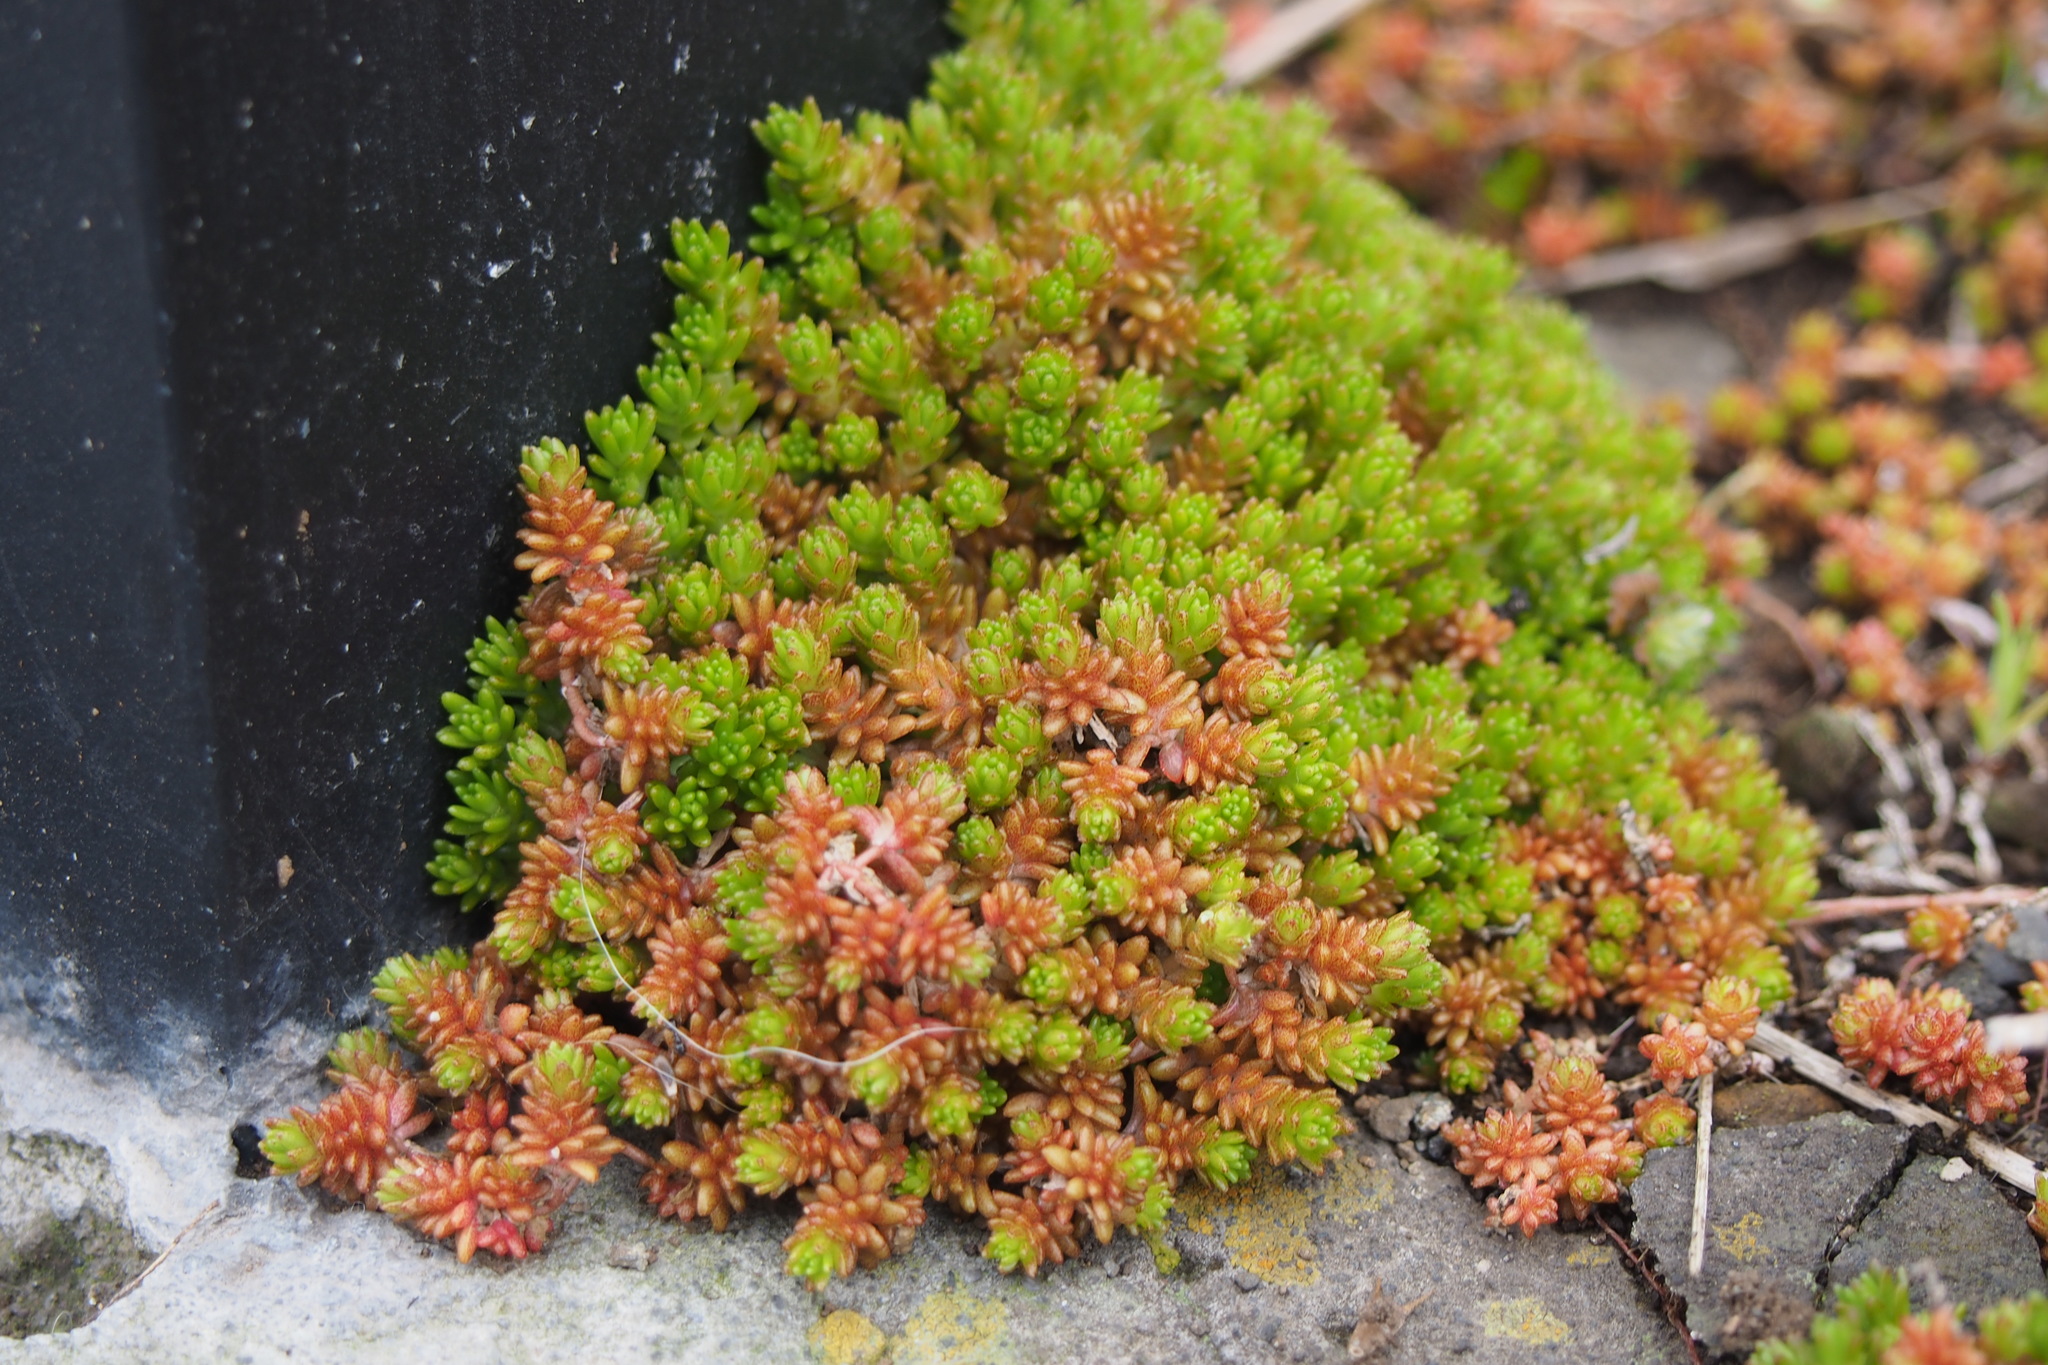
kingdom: Plantae
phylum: Tracheophyta
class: Magnoliopsida
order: Saxifragales
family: Crassulaceae
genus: Sedum
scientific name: Sedum japonicum
